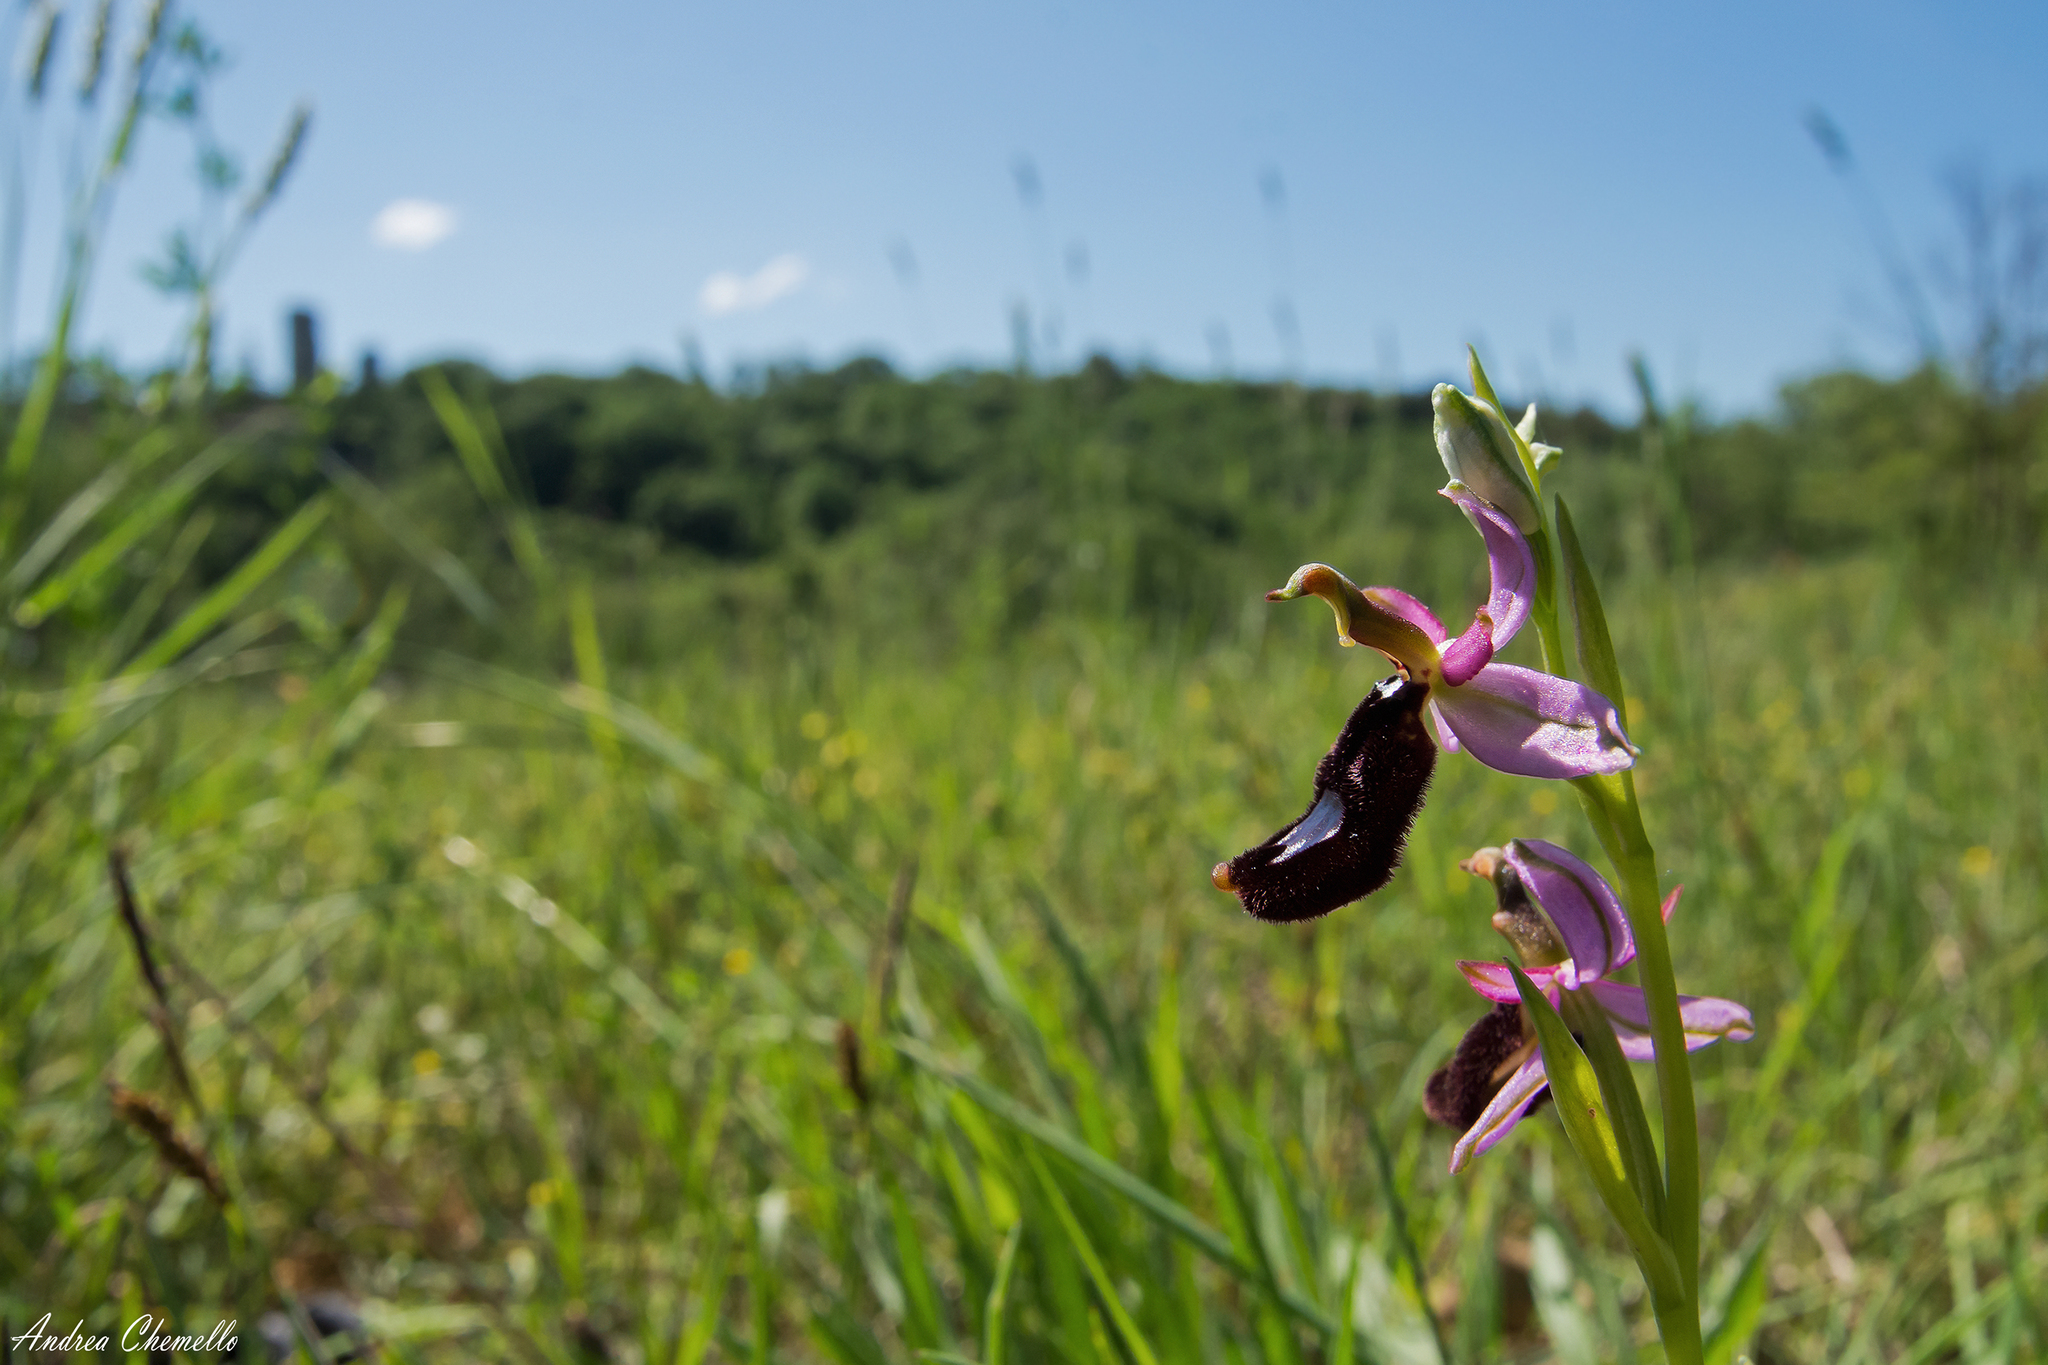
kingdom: Plantae
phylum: Tracheophyta
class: Liliopsida
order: Asparagales
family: Orchidaceae
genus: Ophrys
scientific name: Ophrys bertolonii
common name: Bertoloni's bee orchid
